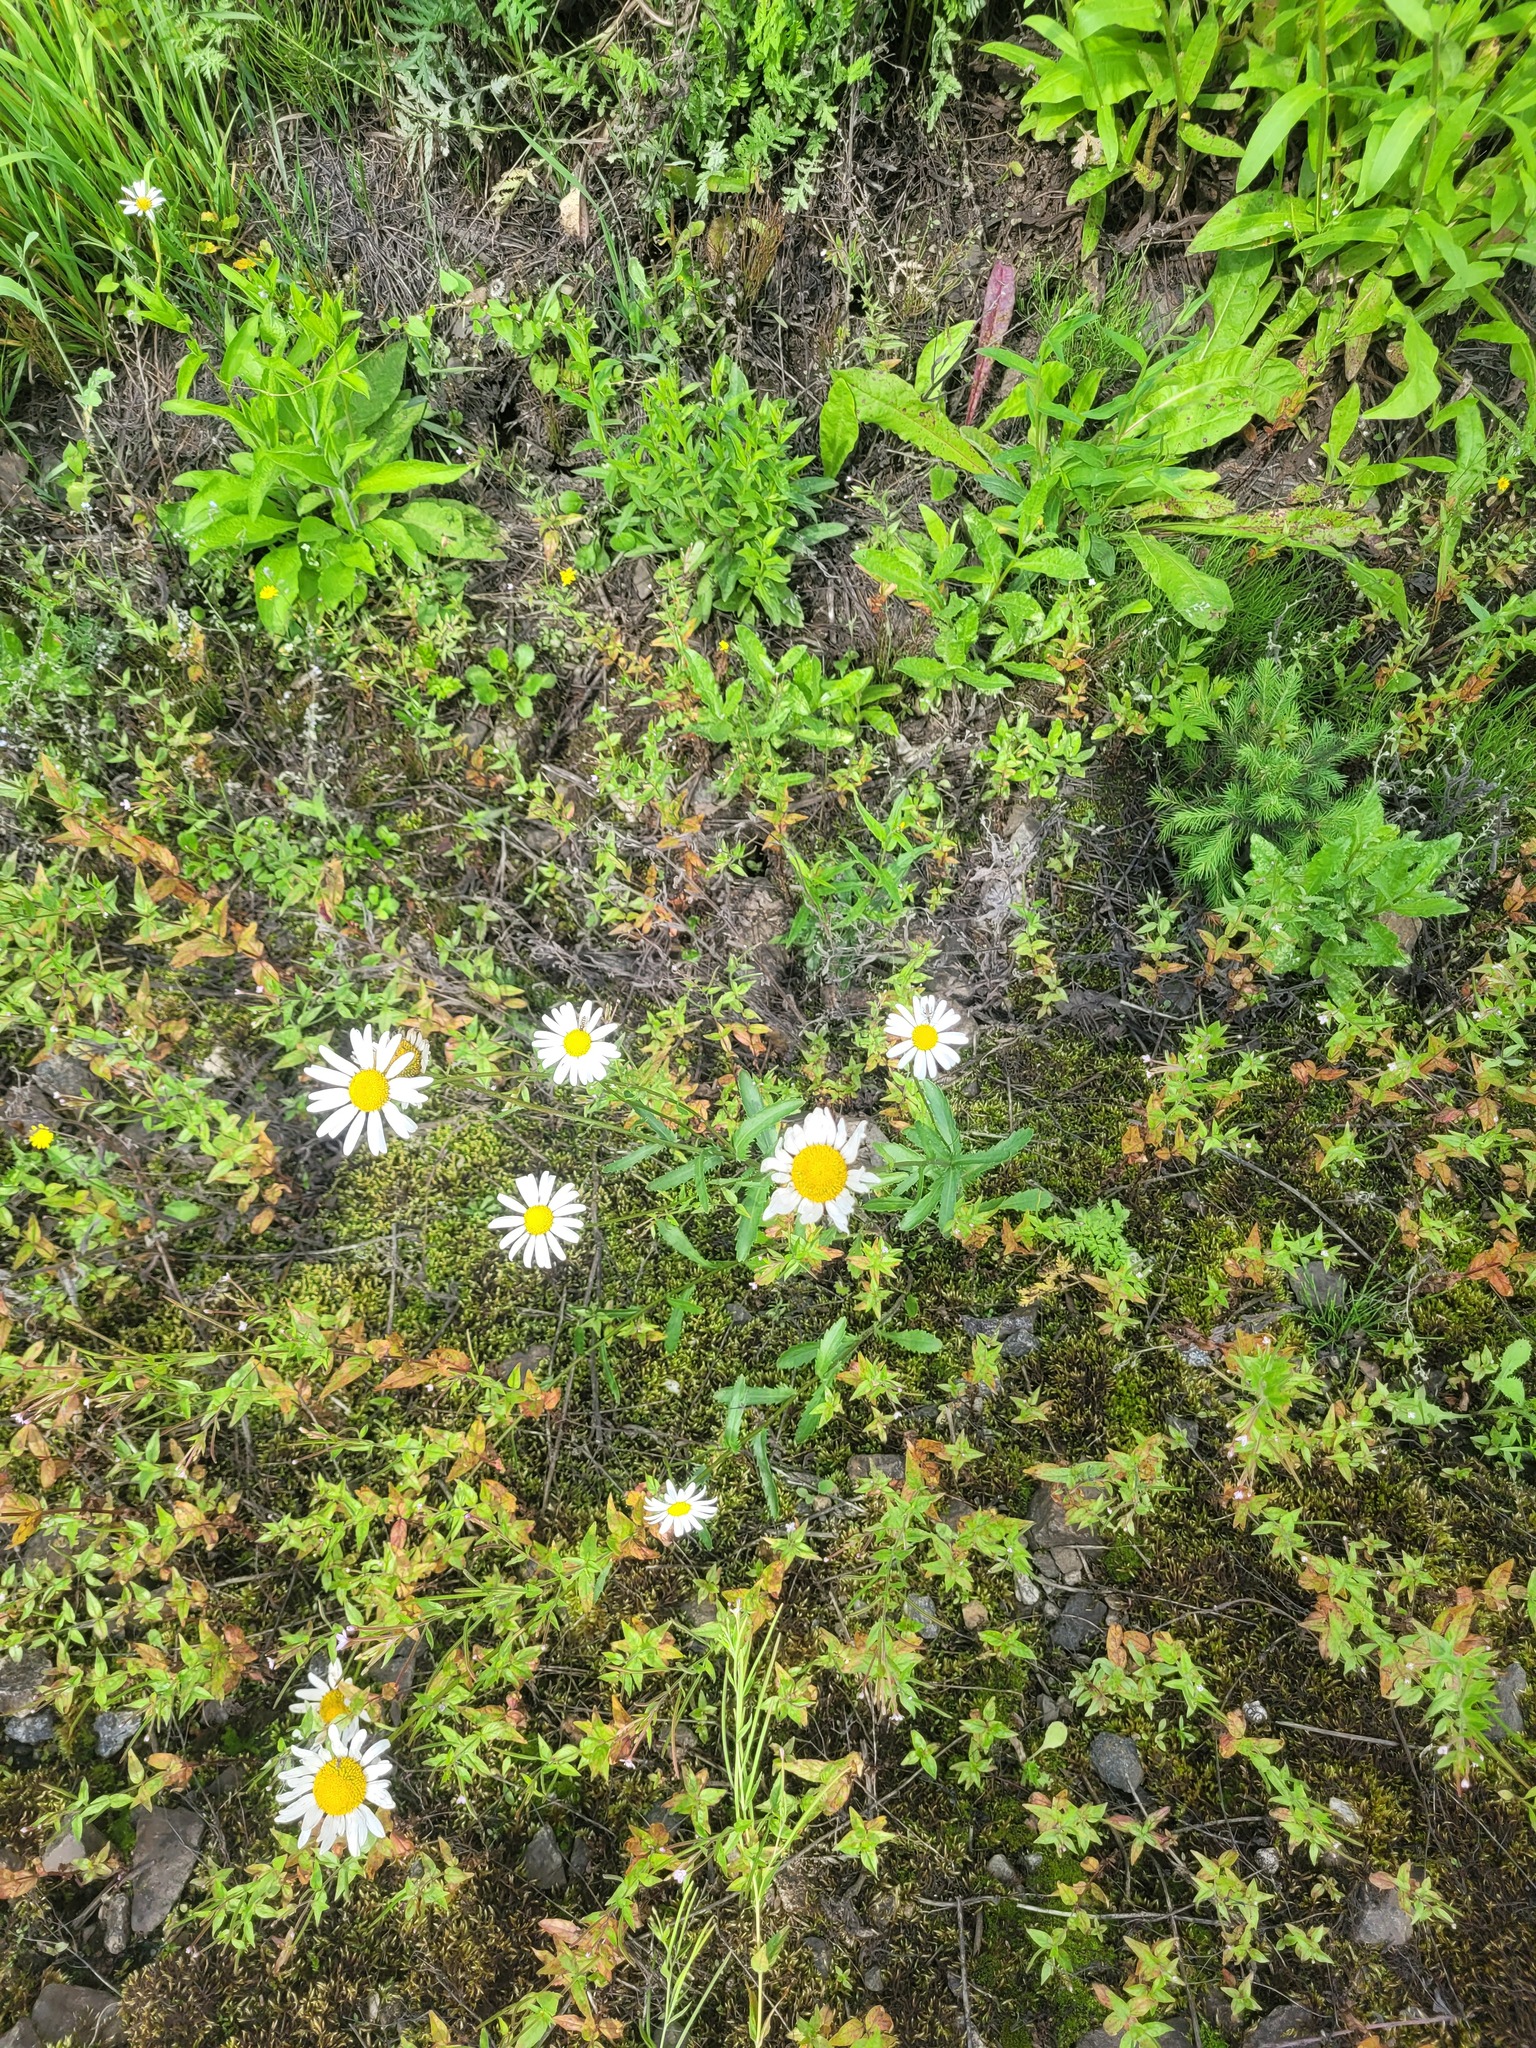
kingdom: Plantae
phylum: Tracheophyta
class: Magnoliopsida
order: Asterales
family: Asteraceae
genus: Leucanthemum
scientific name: Leucanthemum vulgare
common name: Oxeye daisy
